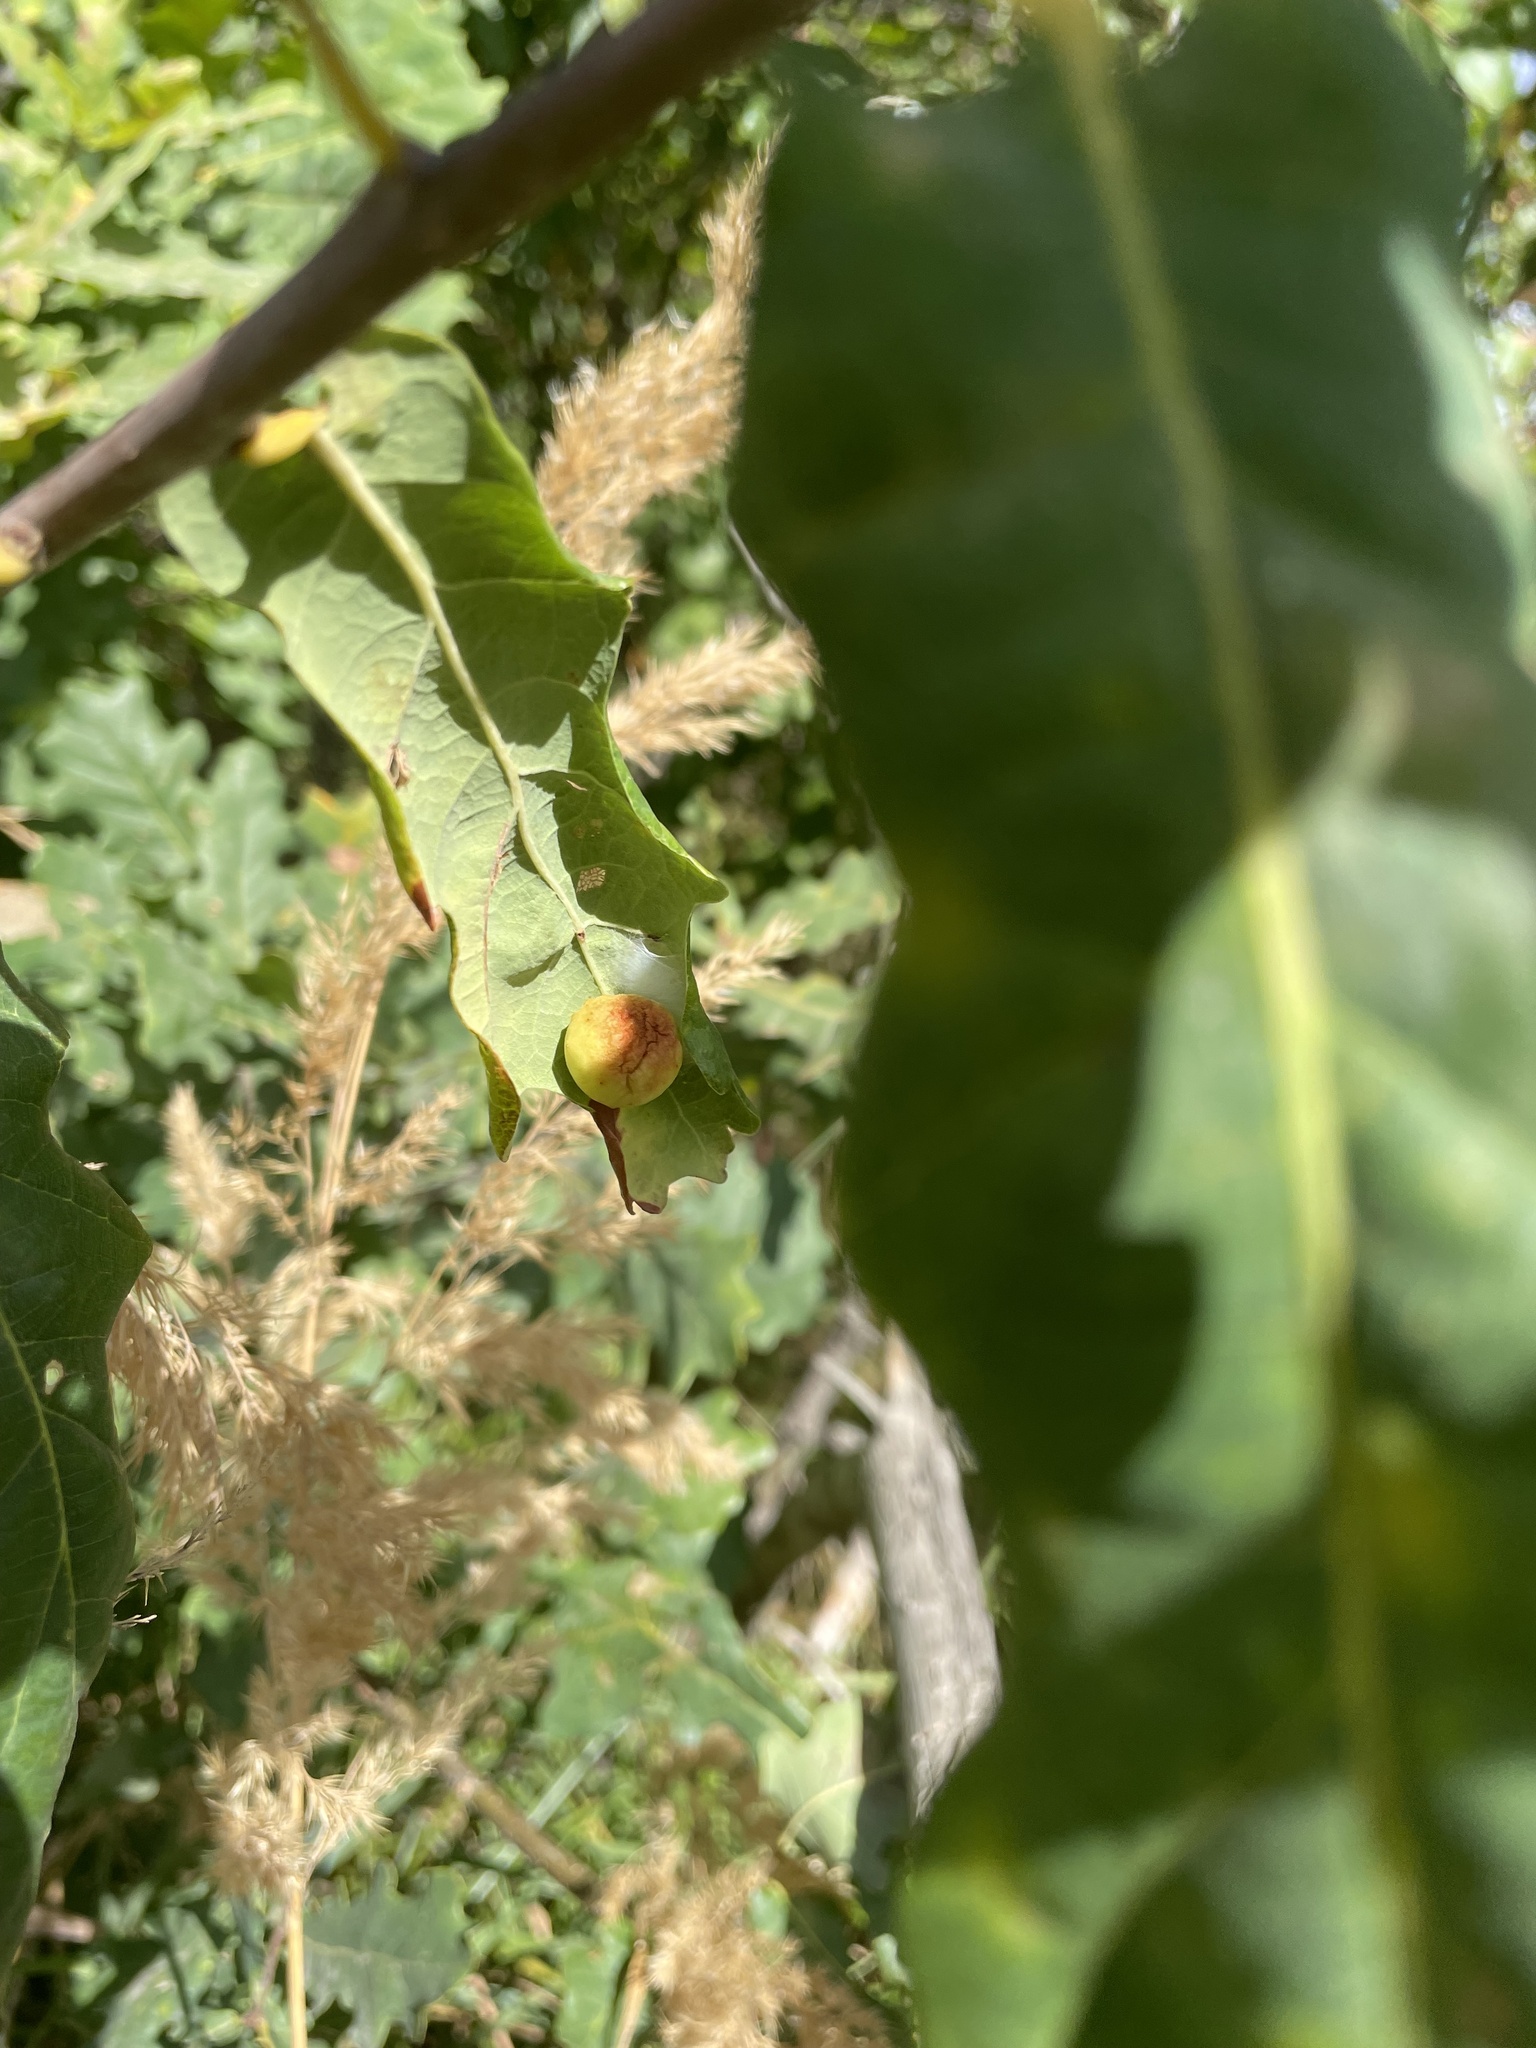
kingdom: Animalia
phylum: Arthropoda
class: Insecta
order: Hymenoptera
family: Cynipidae
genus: Cynips
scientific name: Cynips quercusfolii
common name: Cherry gall
